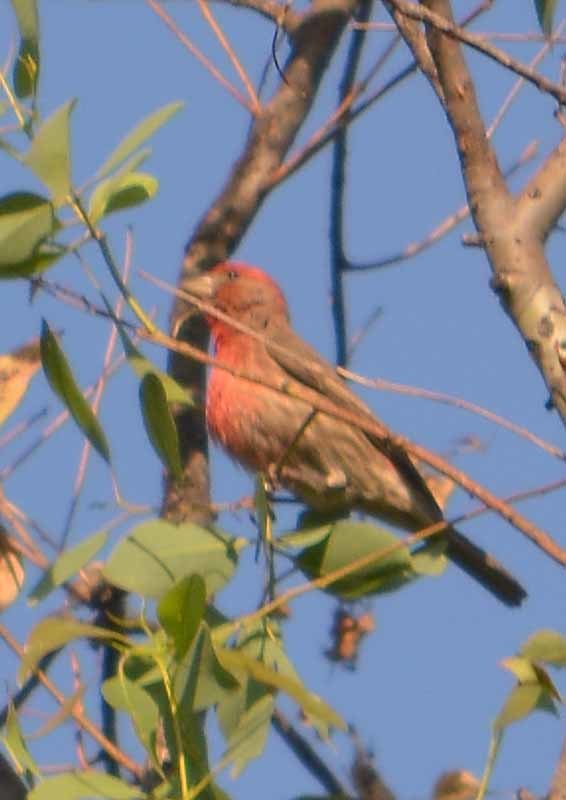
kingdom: Animalia
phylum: Chordata
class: Aves
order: Passeriformes
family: Fringillidae
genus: Haemorhous
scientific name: Haemorhous mexicanus
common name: House finch
